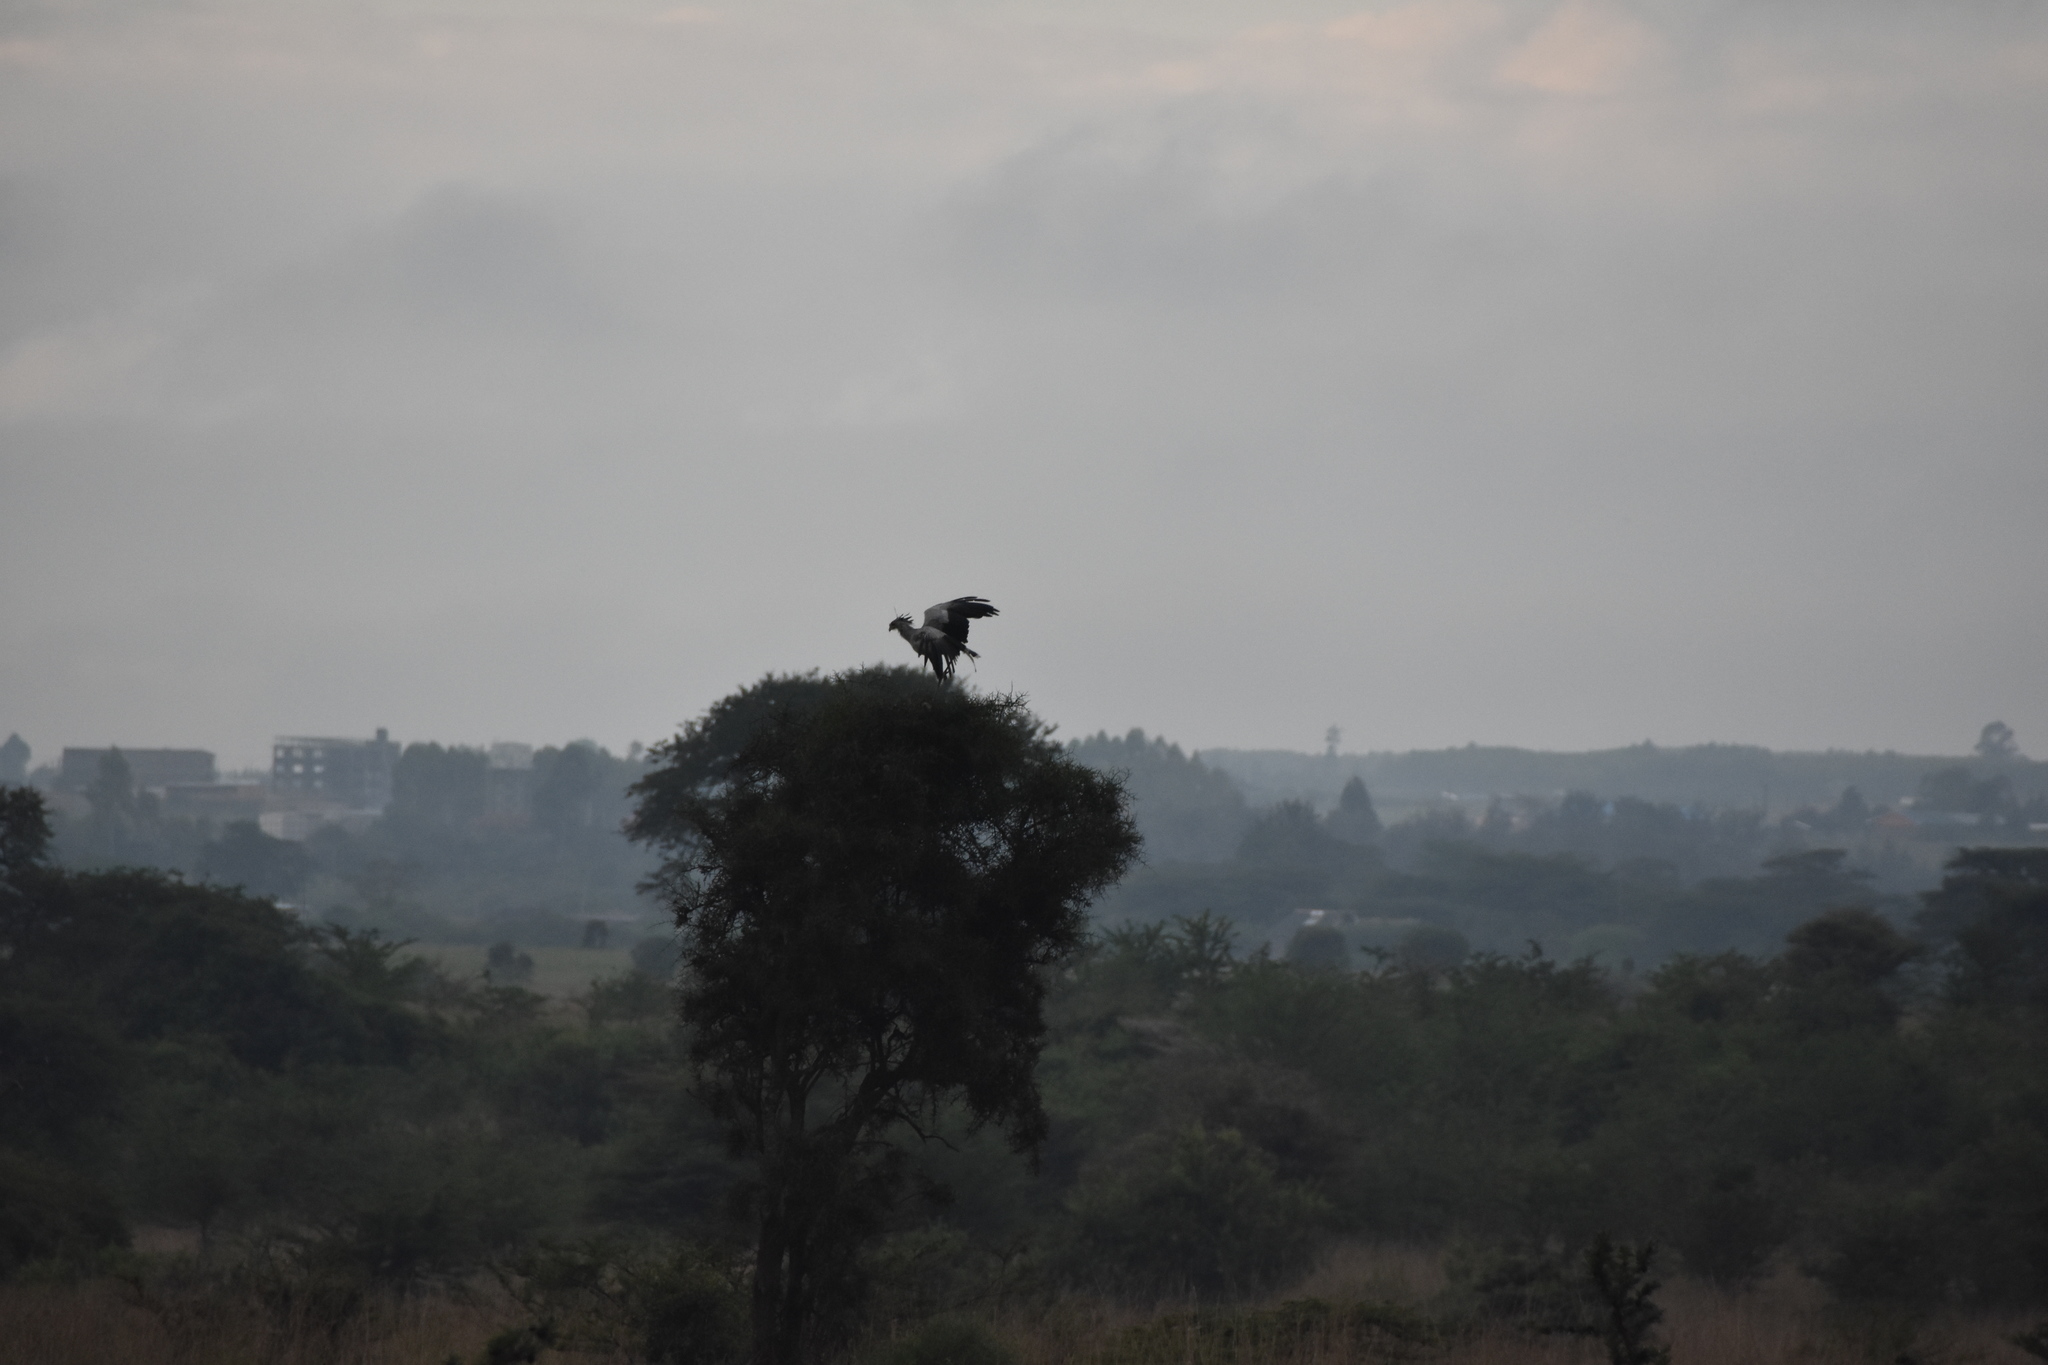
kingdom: Animalia
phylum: Chordata
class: Aves
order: Accipitriformes
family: Sagittariidae
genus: Sagittarius
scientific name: Sagittarius serpentarius
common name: Secretarybird
